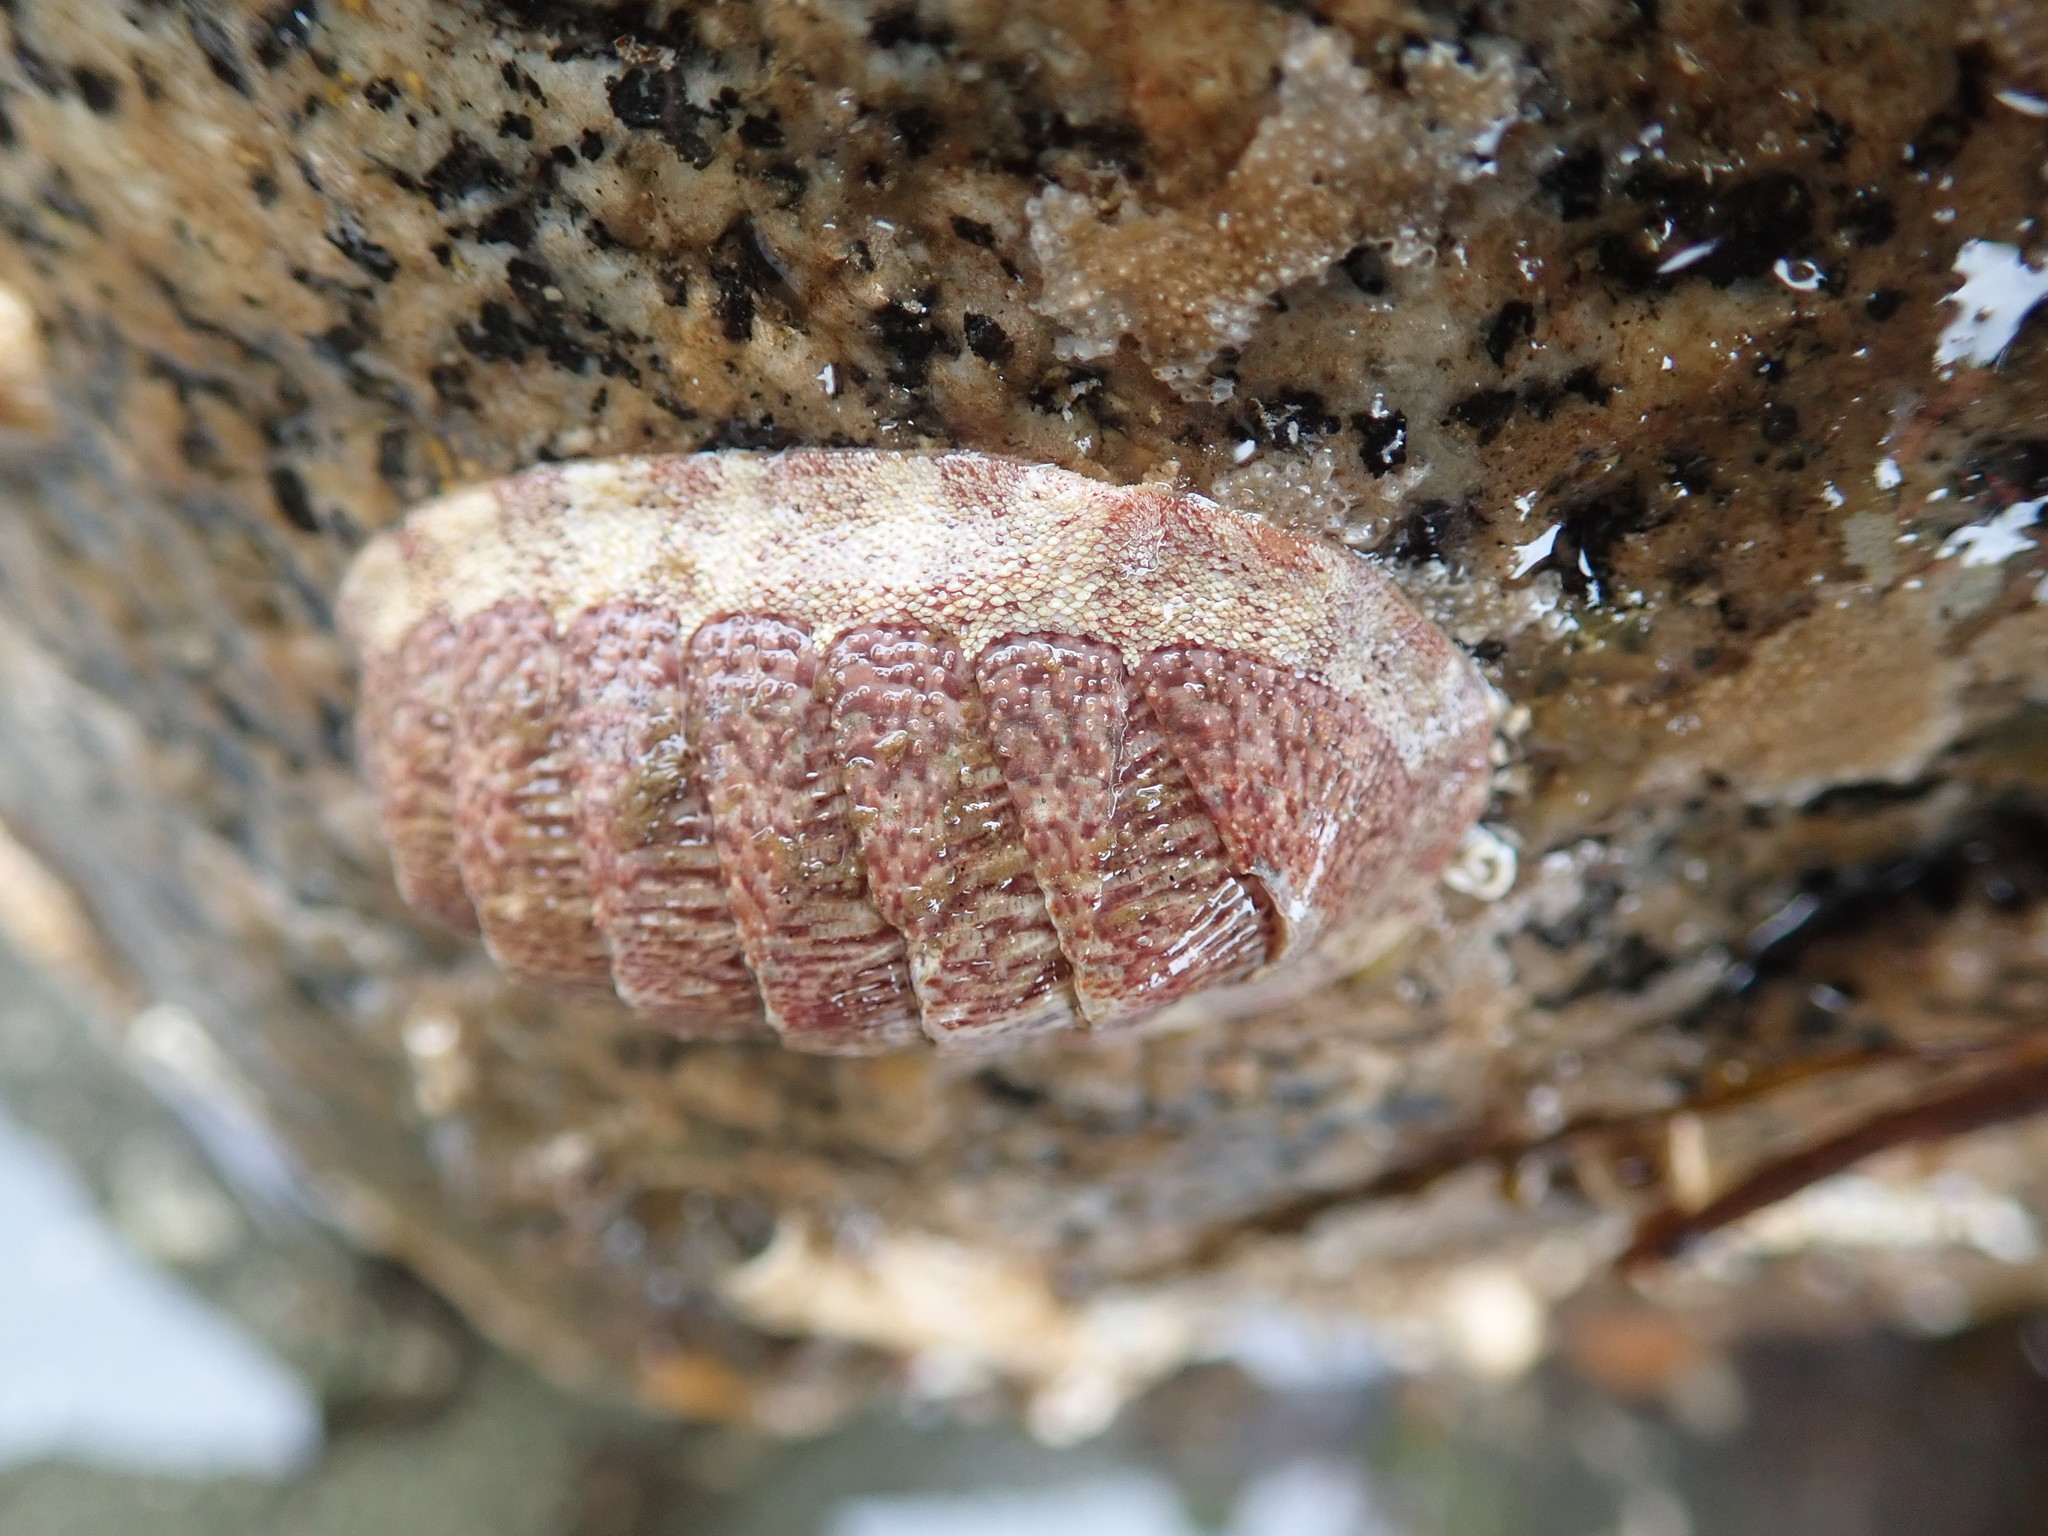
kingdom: Animalia
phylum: Mollusca
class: Polyplacophora
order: Chitonida
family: Ischnochitonidae
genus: Lepidozona
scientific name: Lepidozona mertensii
